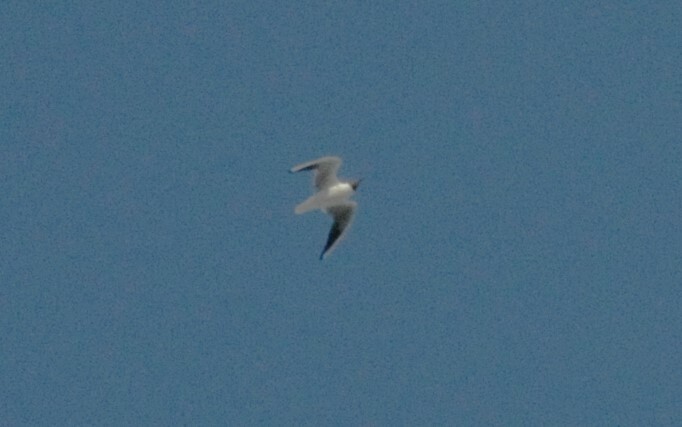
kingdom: Animalia
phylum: Chordata
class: Aves
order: Charadriiformes
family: Laridae
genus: Chroicocephalus
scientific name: Chroicocephalus ridibundus
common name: Black-headed gull
